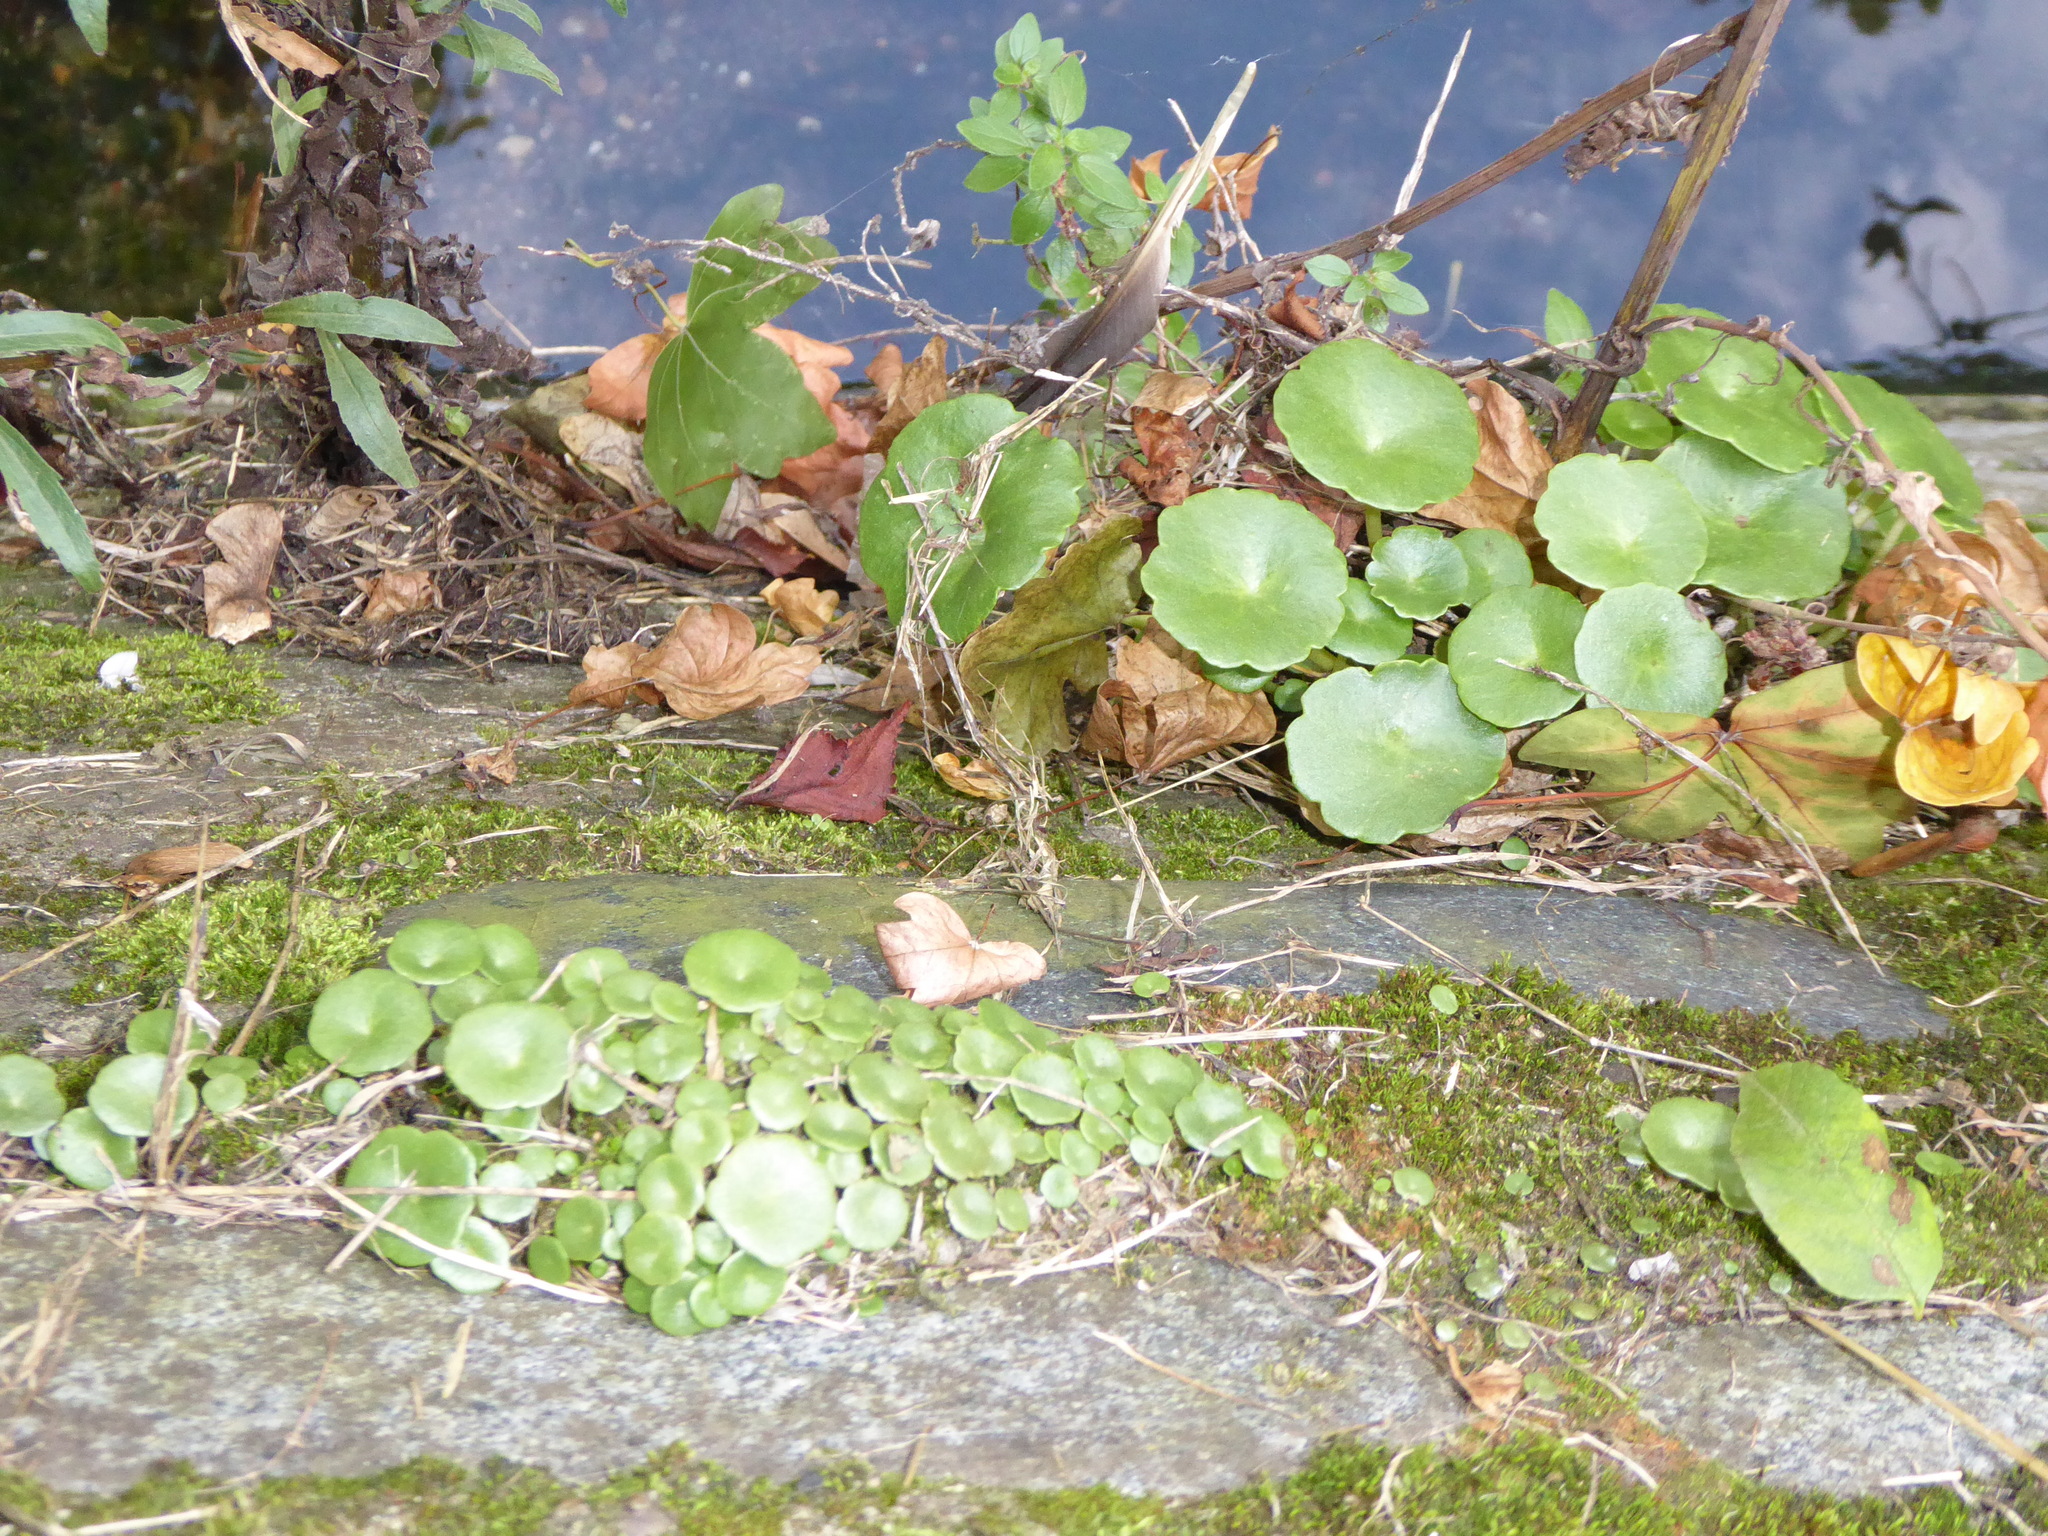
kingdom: Plantae
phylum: Tracheophyta
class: Magnoliopsida
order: Saxifragales
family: Crassulaceae
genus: Umbilicus
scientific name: Umbilicus rupestris
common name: Navelwort
